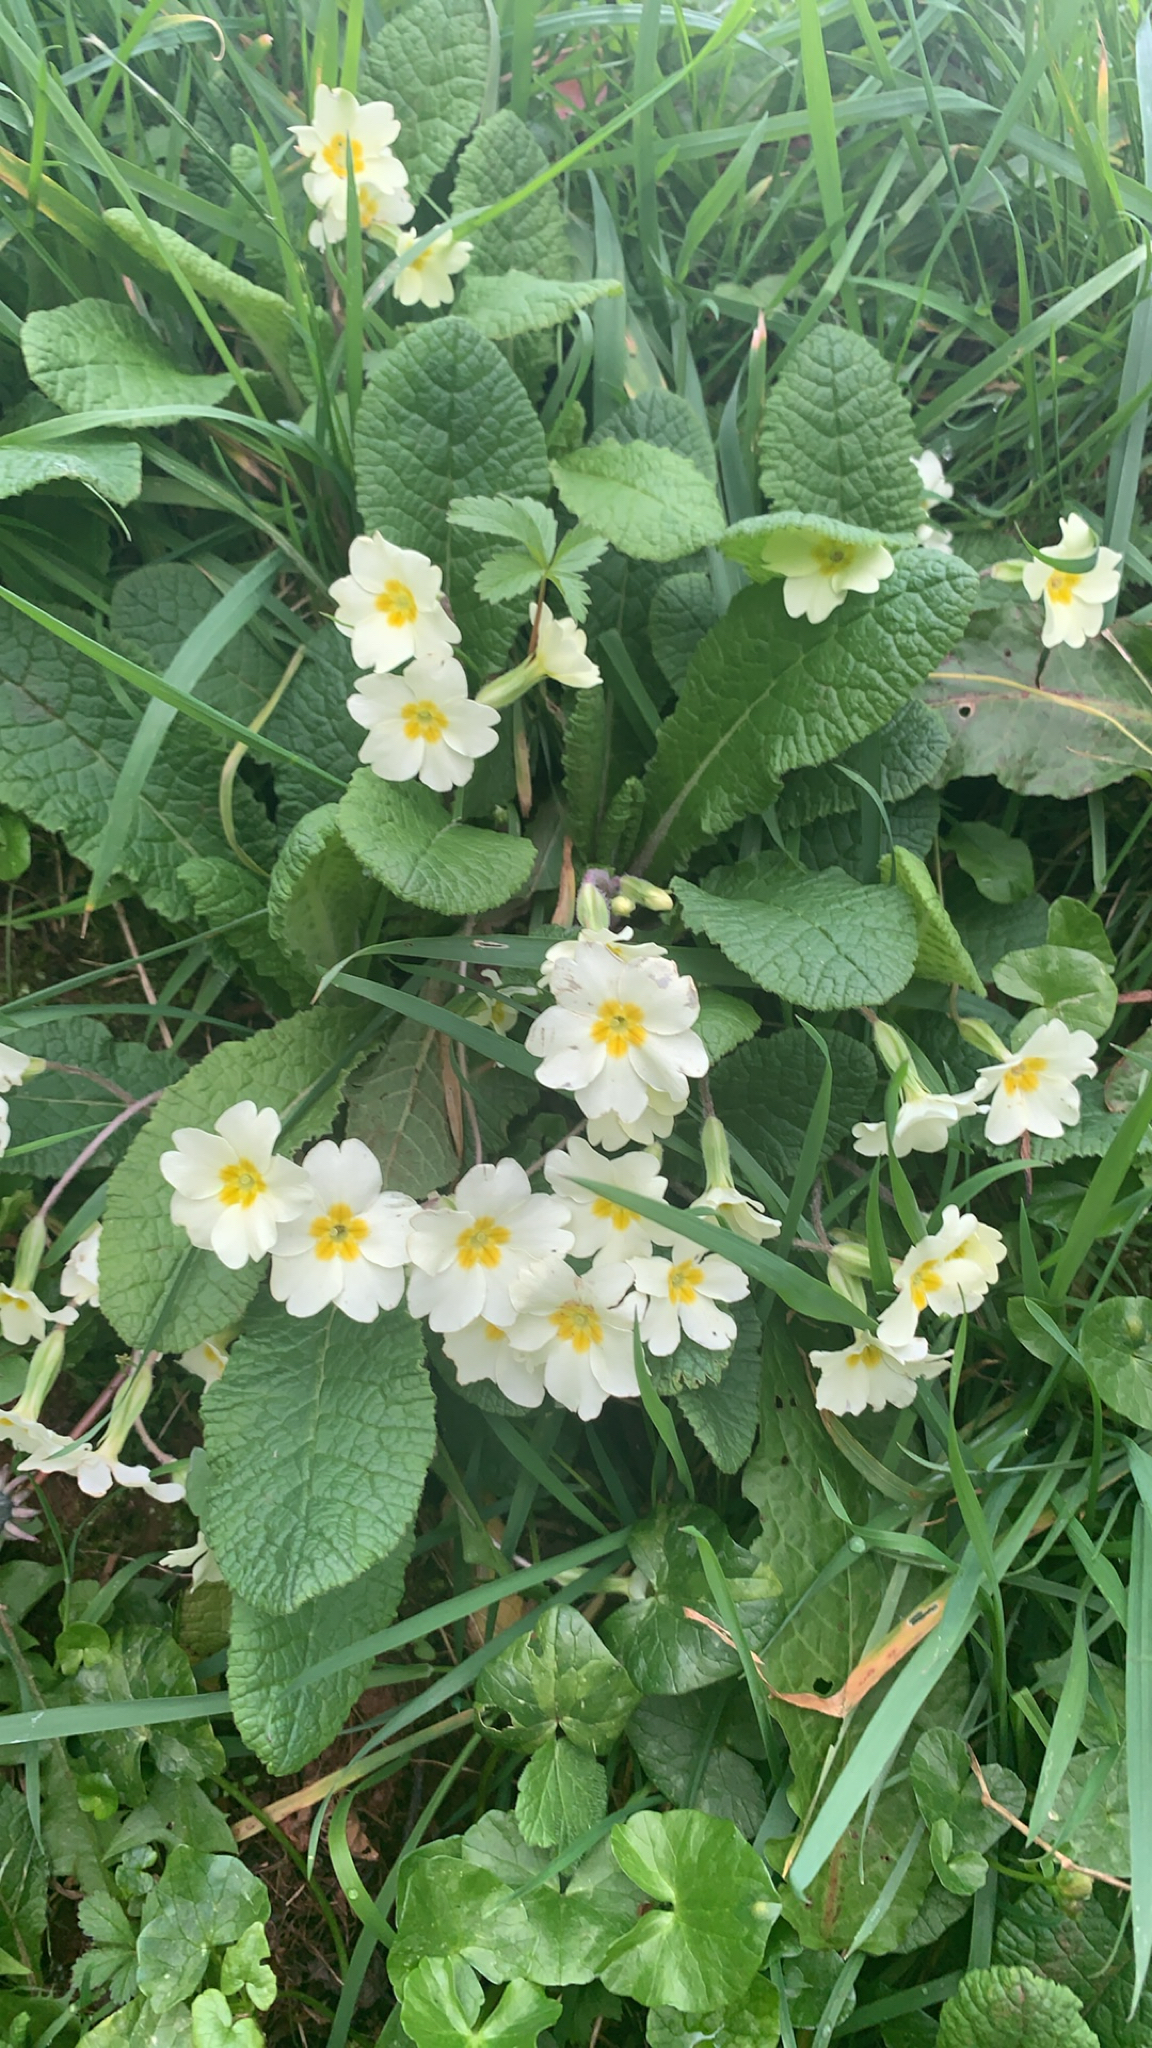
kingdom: Plantae
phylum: Tracheophyta
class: Magnoliopsida
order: Ericales
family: Primulaceae
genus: Primula
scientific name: Primula vulgaris
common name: Primrose
